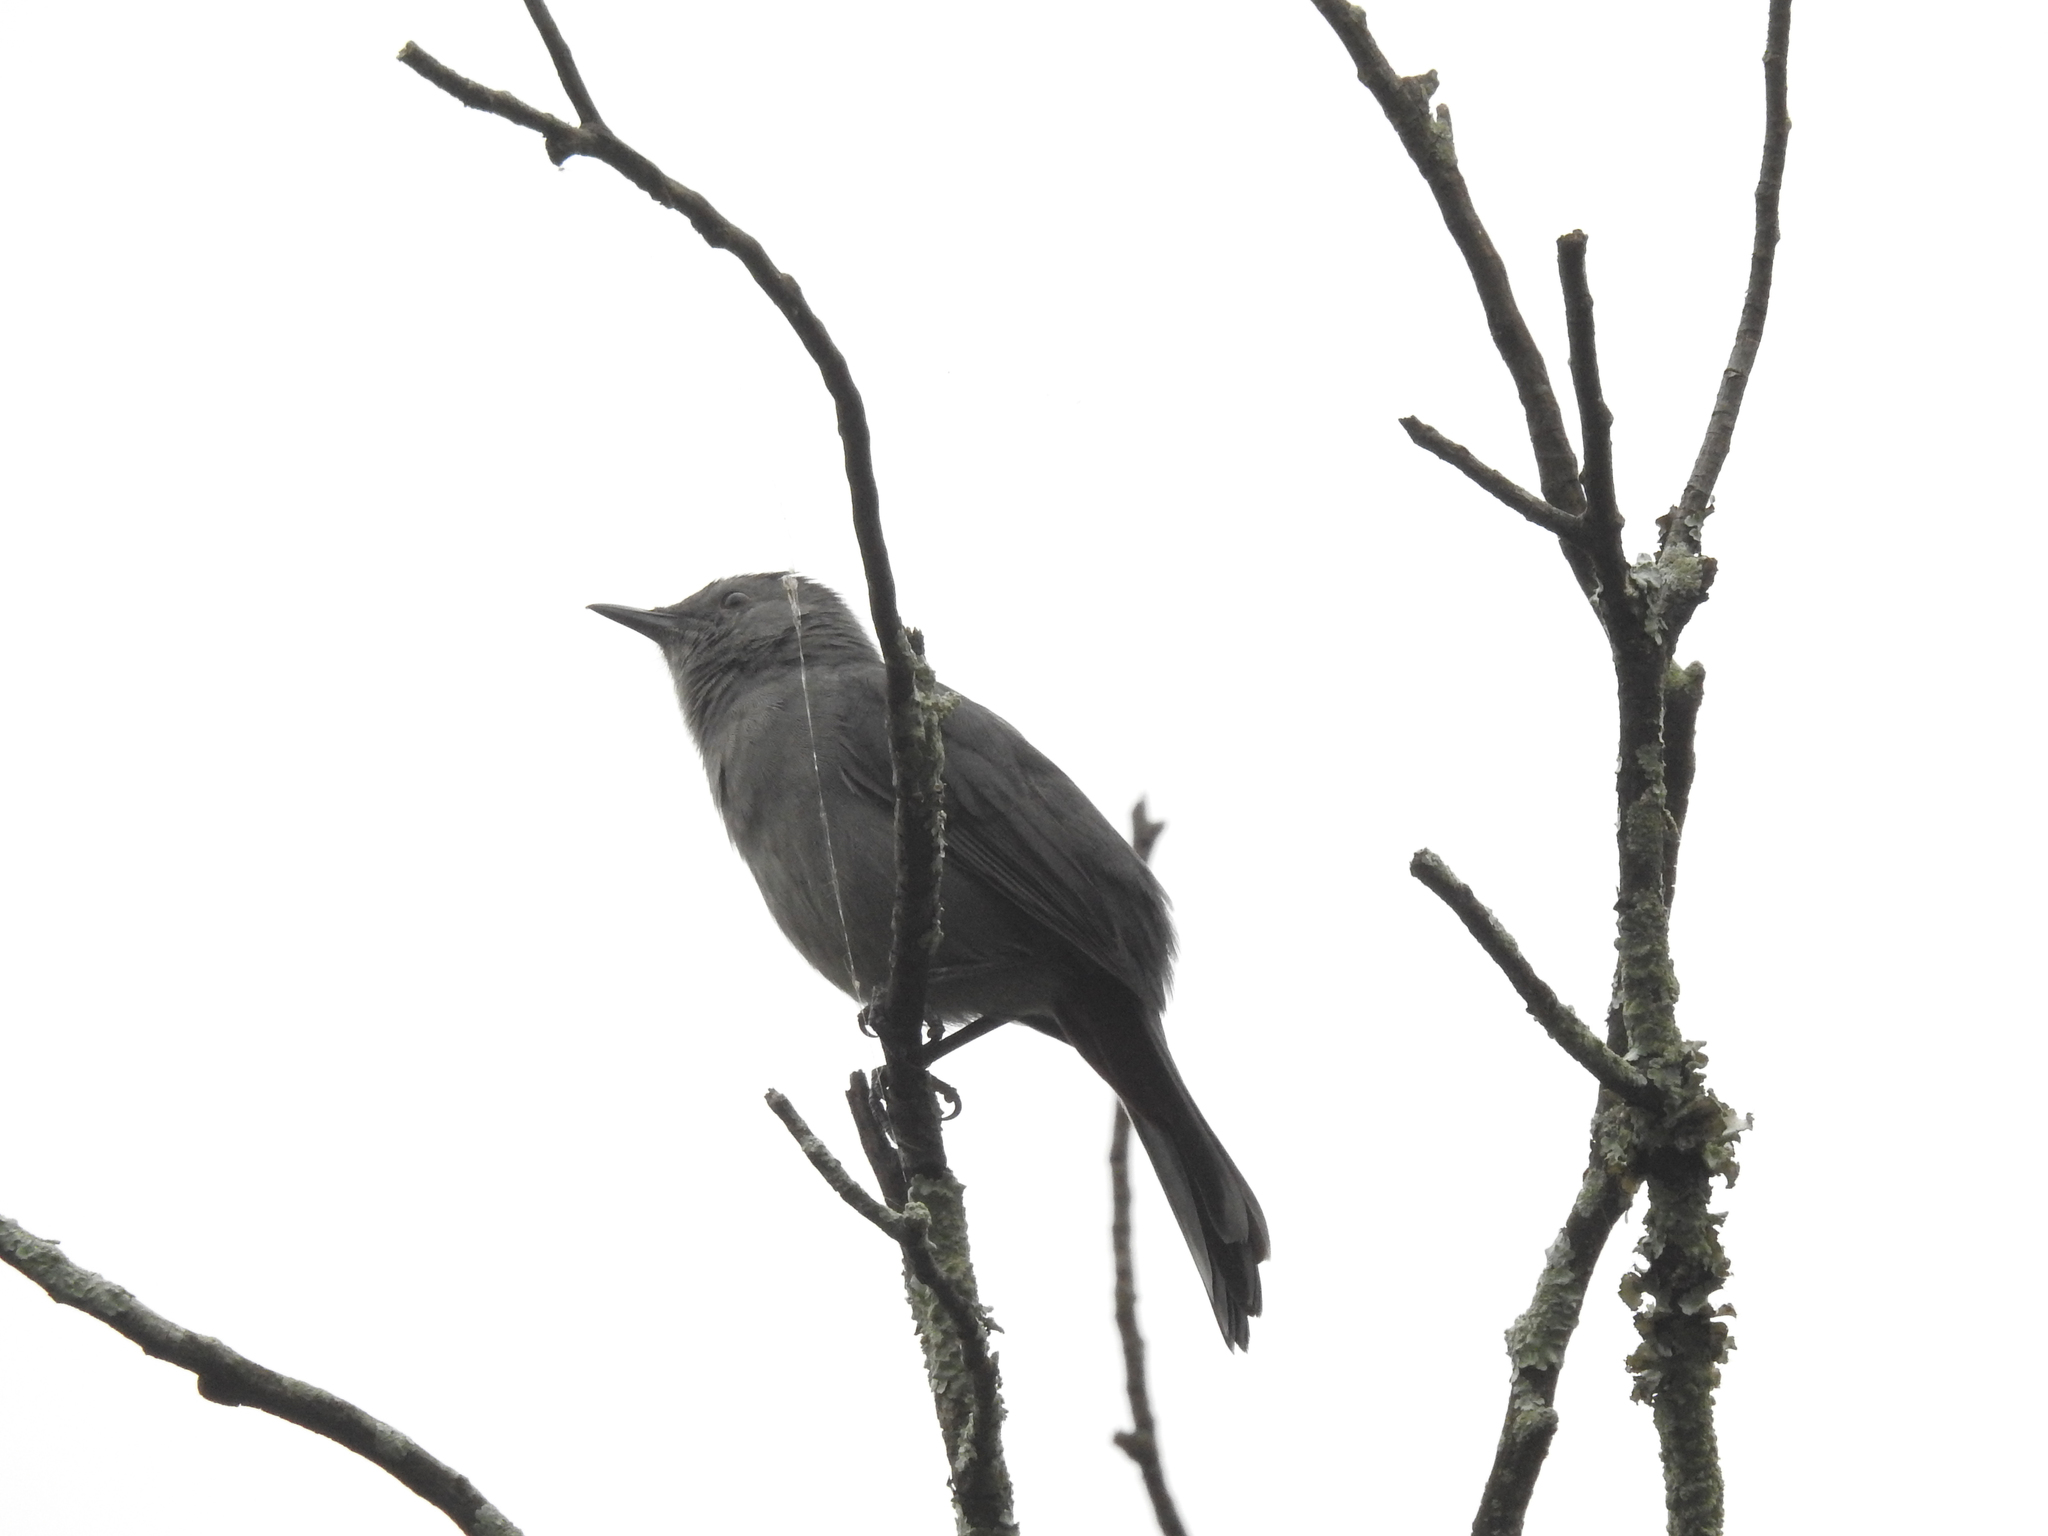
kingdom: Animalia
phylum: Chordata
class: Aves
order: Passeriformes
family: Mimidae
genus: Dumetella
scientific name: Dumetella carolinensis
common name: Gray catbird
